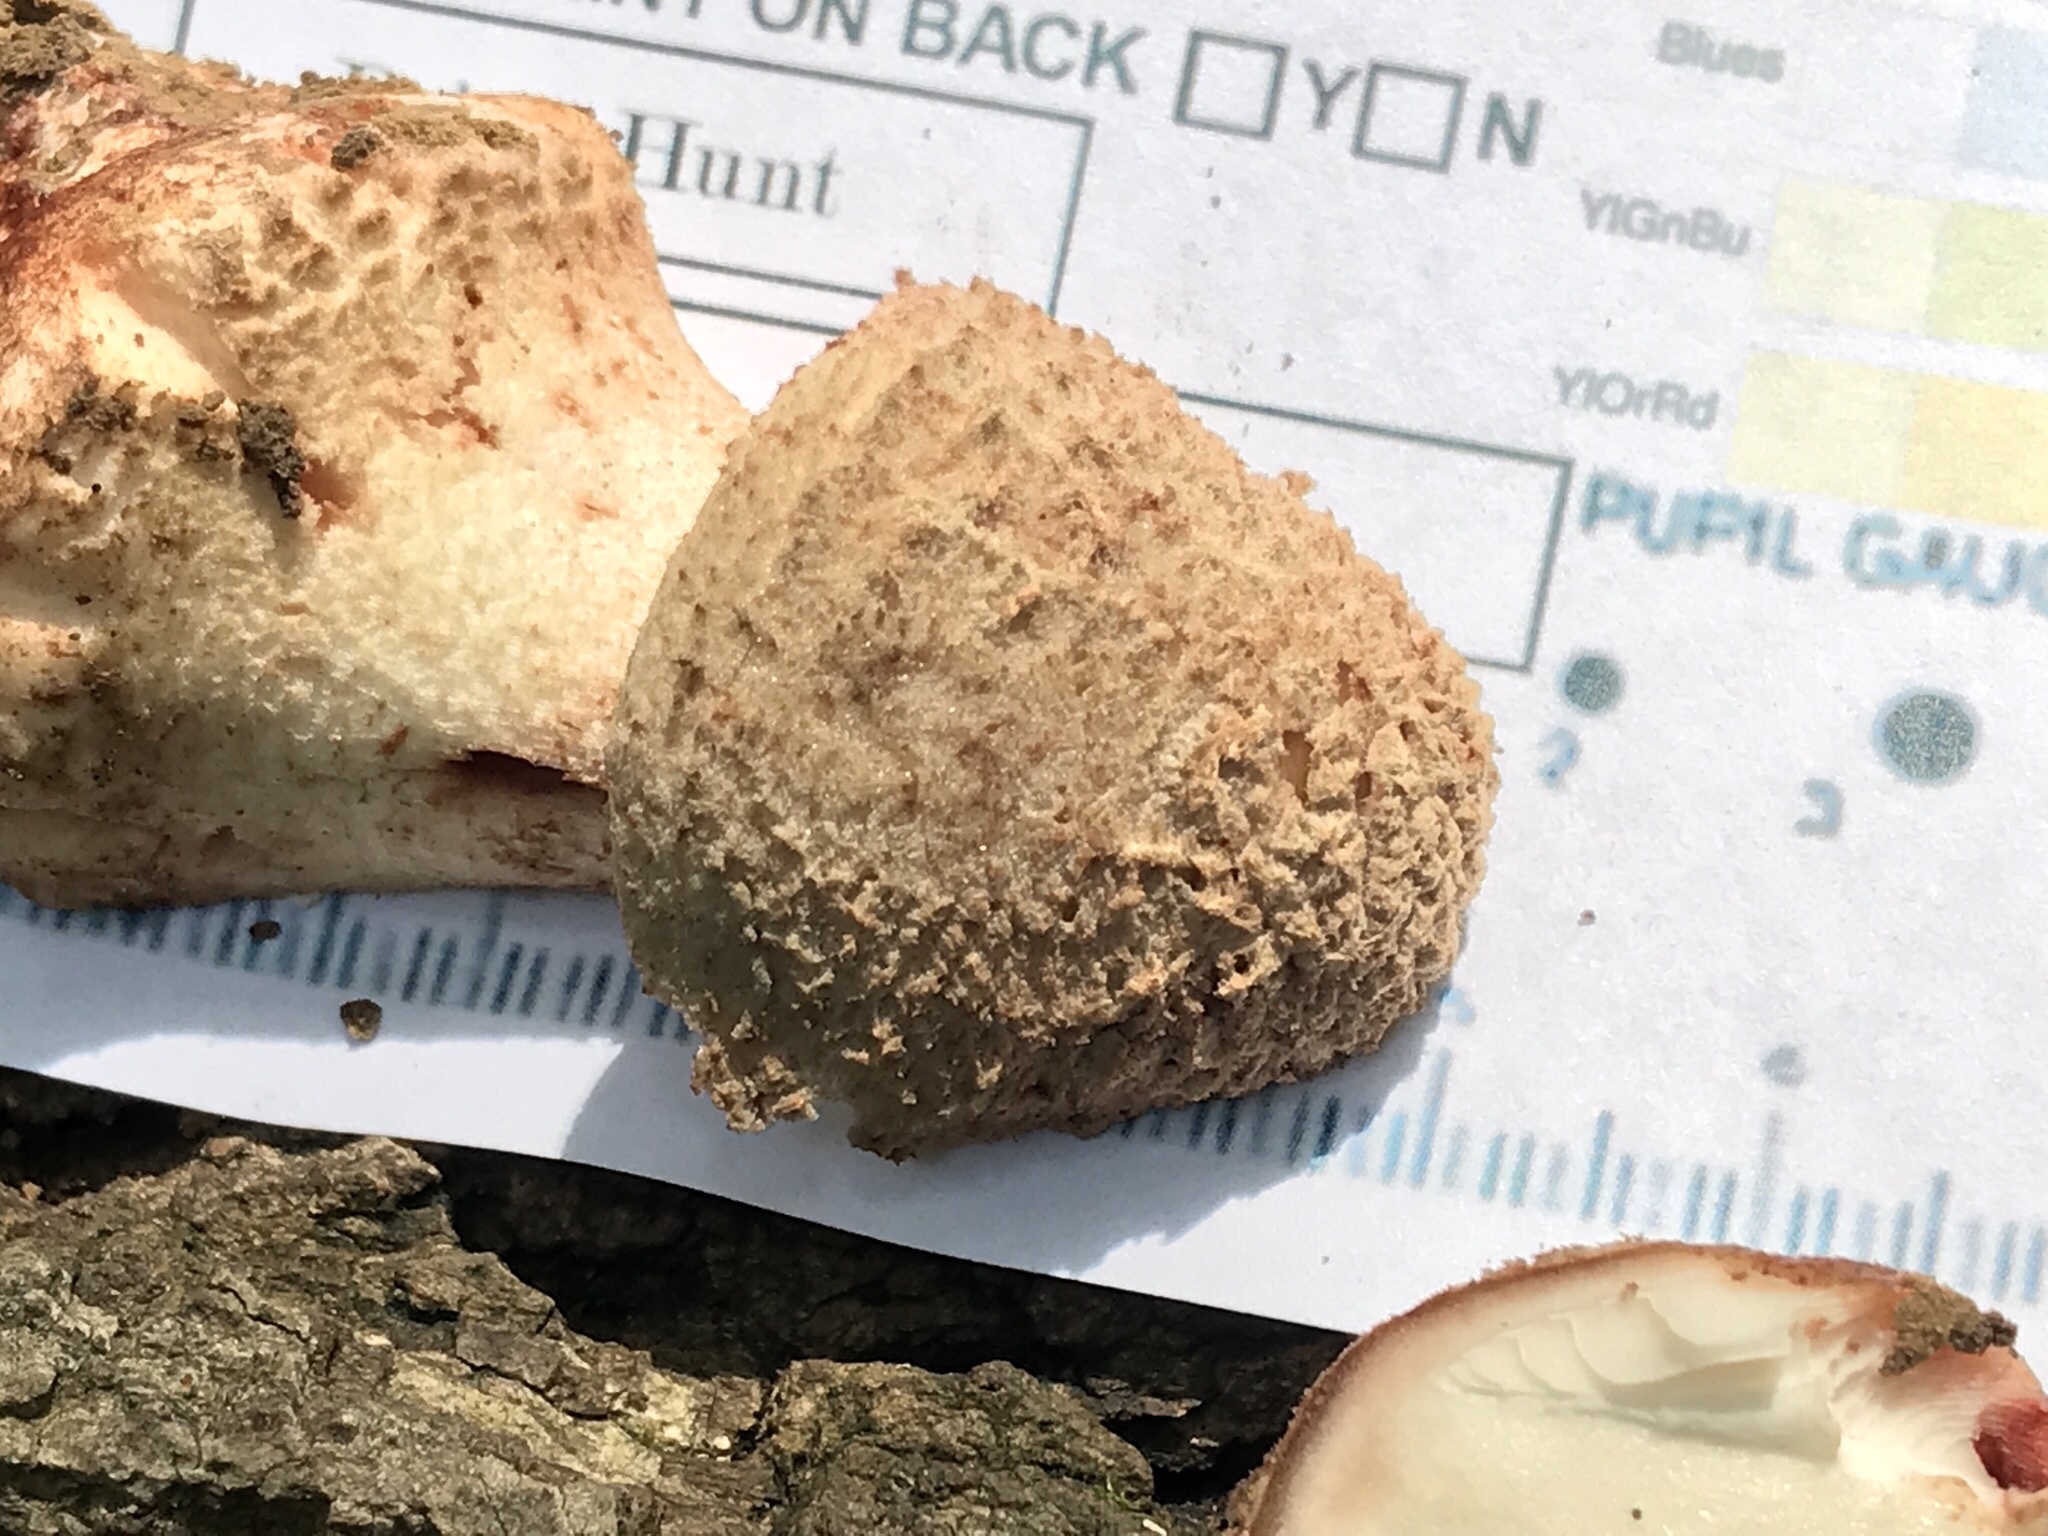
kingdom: Fungi
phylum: Basidiomycota
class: Agaricomycetes
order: Agaricales
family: Amanitaceae
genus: Amanita
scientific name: Amanita daucipes
